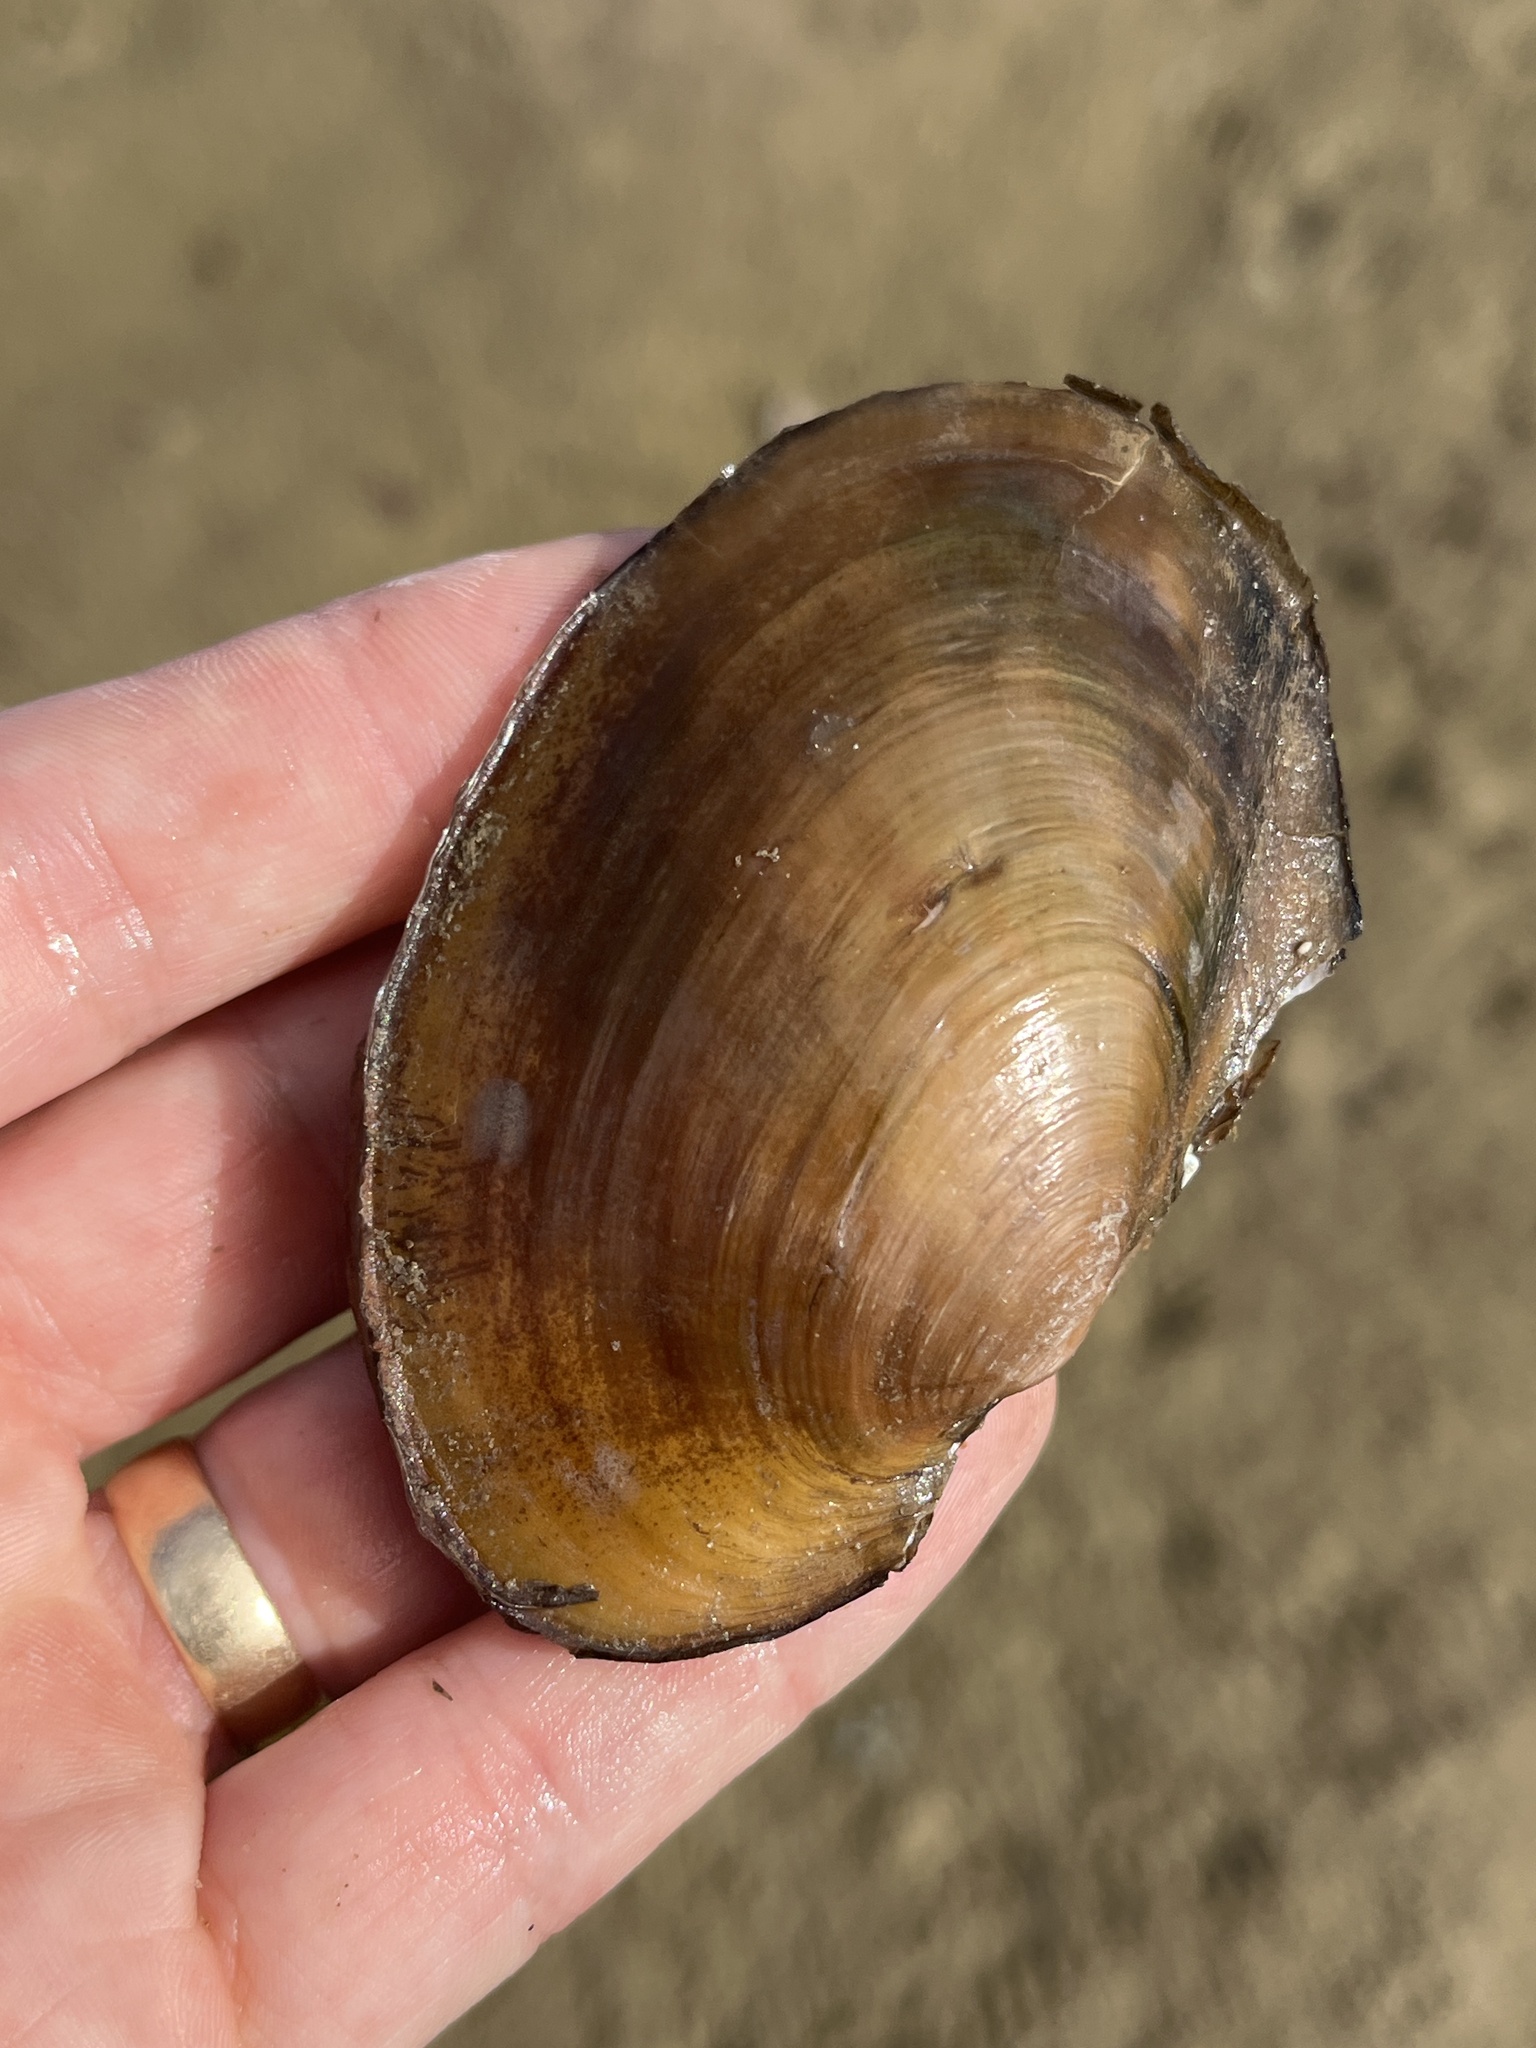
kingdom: Animalia
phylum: Mollusca
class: Bivalvia
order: Unionida
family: Unionidae
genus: Potamilus
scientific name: Potamilus fragilis
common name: Fragile papershell
